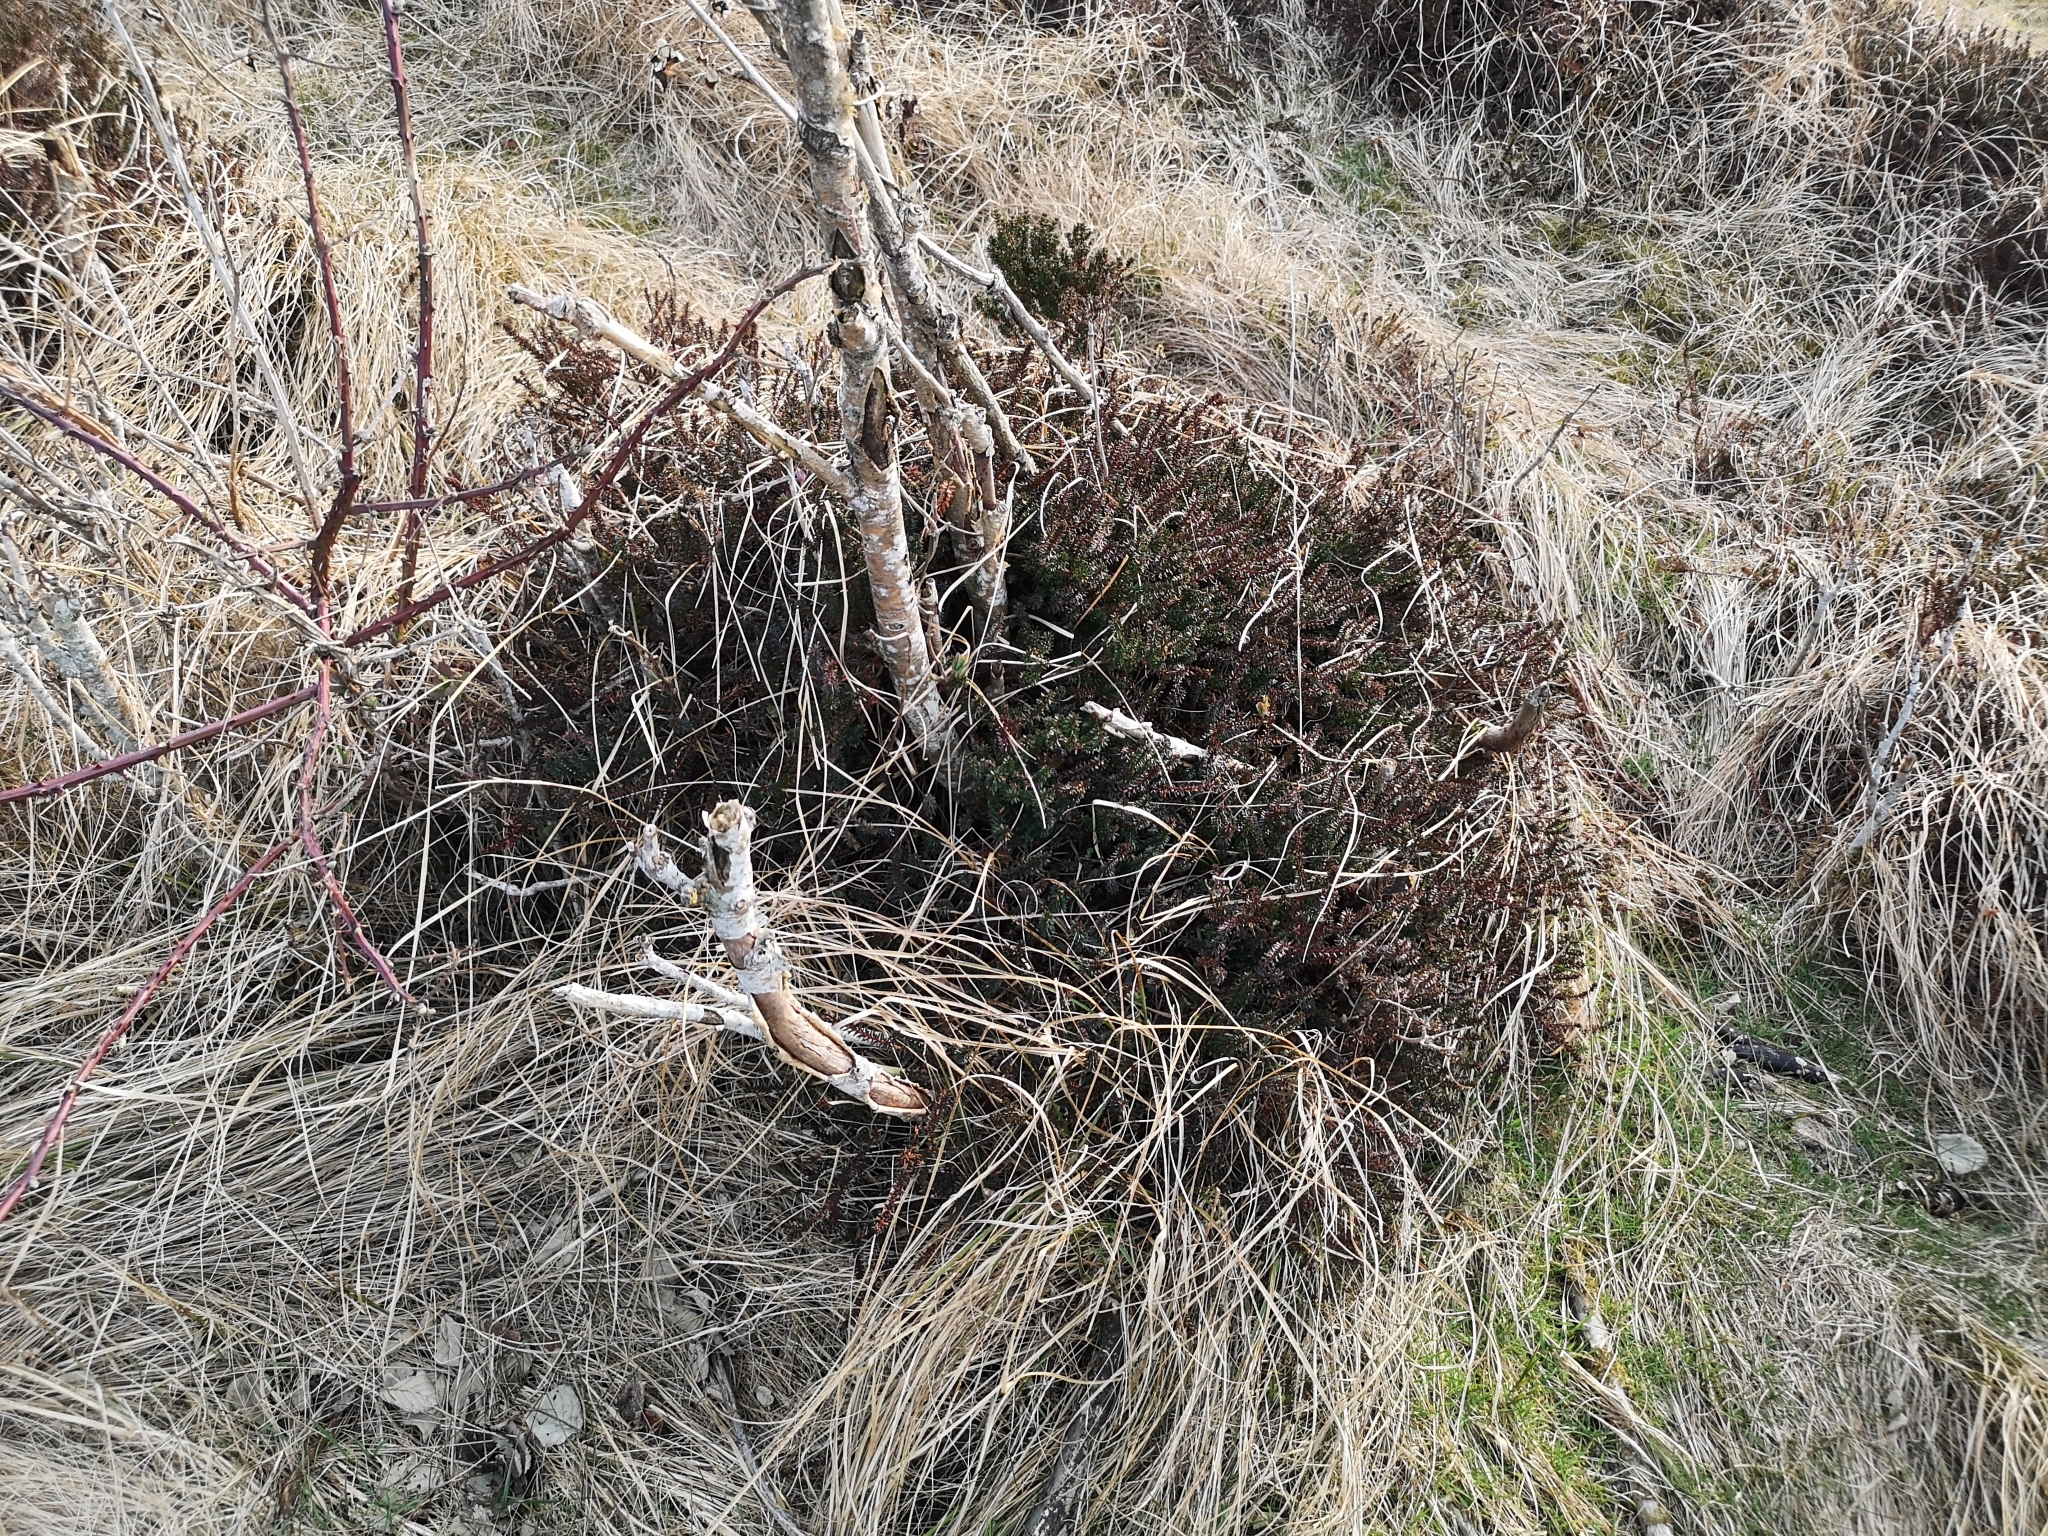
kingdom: Plantae
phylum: Tracheophyta
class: Magnoliopsida
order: Ericales
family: Ericaceae
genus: Empetrum
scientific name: Empetrum nigrum
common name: Black crowberry
